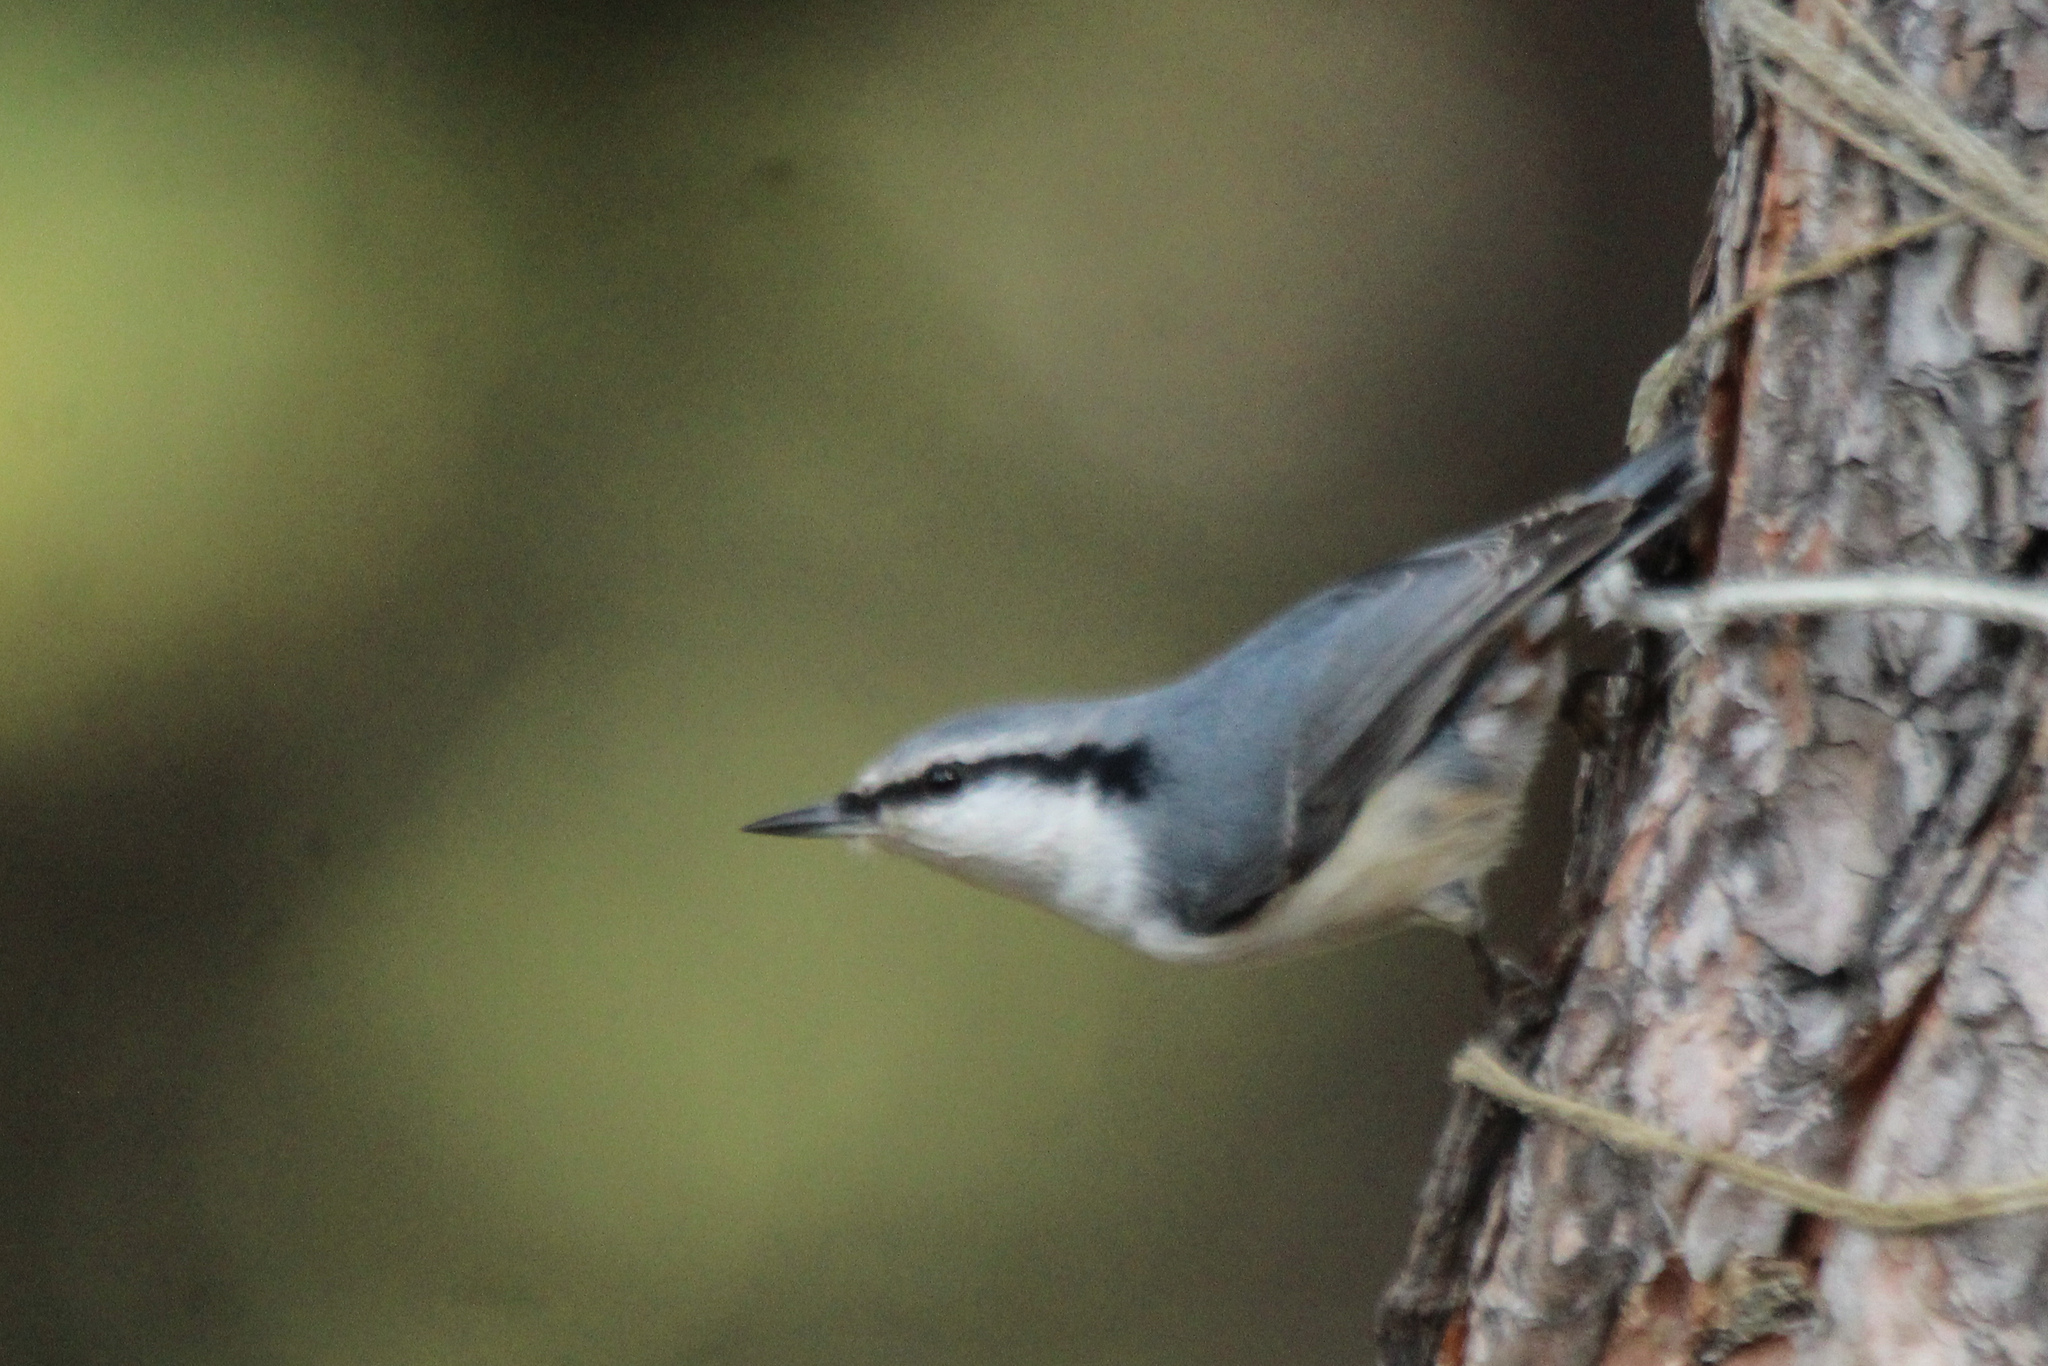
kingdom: Animalia
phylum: Chordata
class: Aves
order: Passeriformes
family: Sittidae
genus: Sitta
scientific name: Sitta europaea
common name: Eurasian nuthatch
